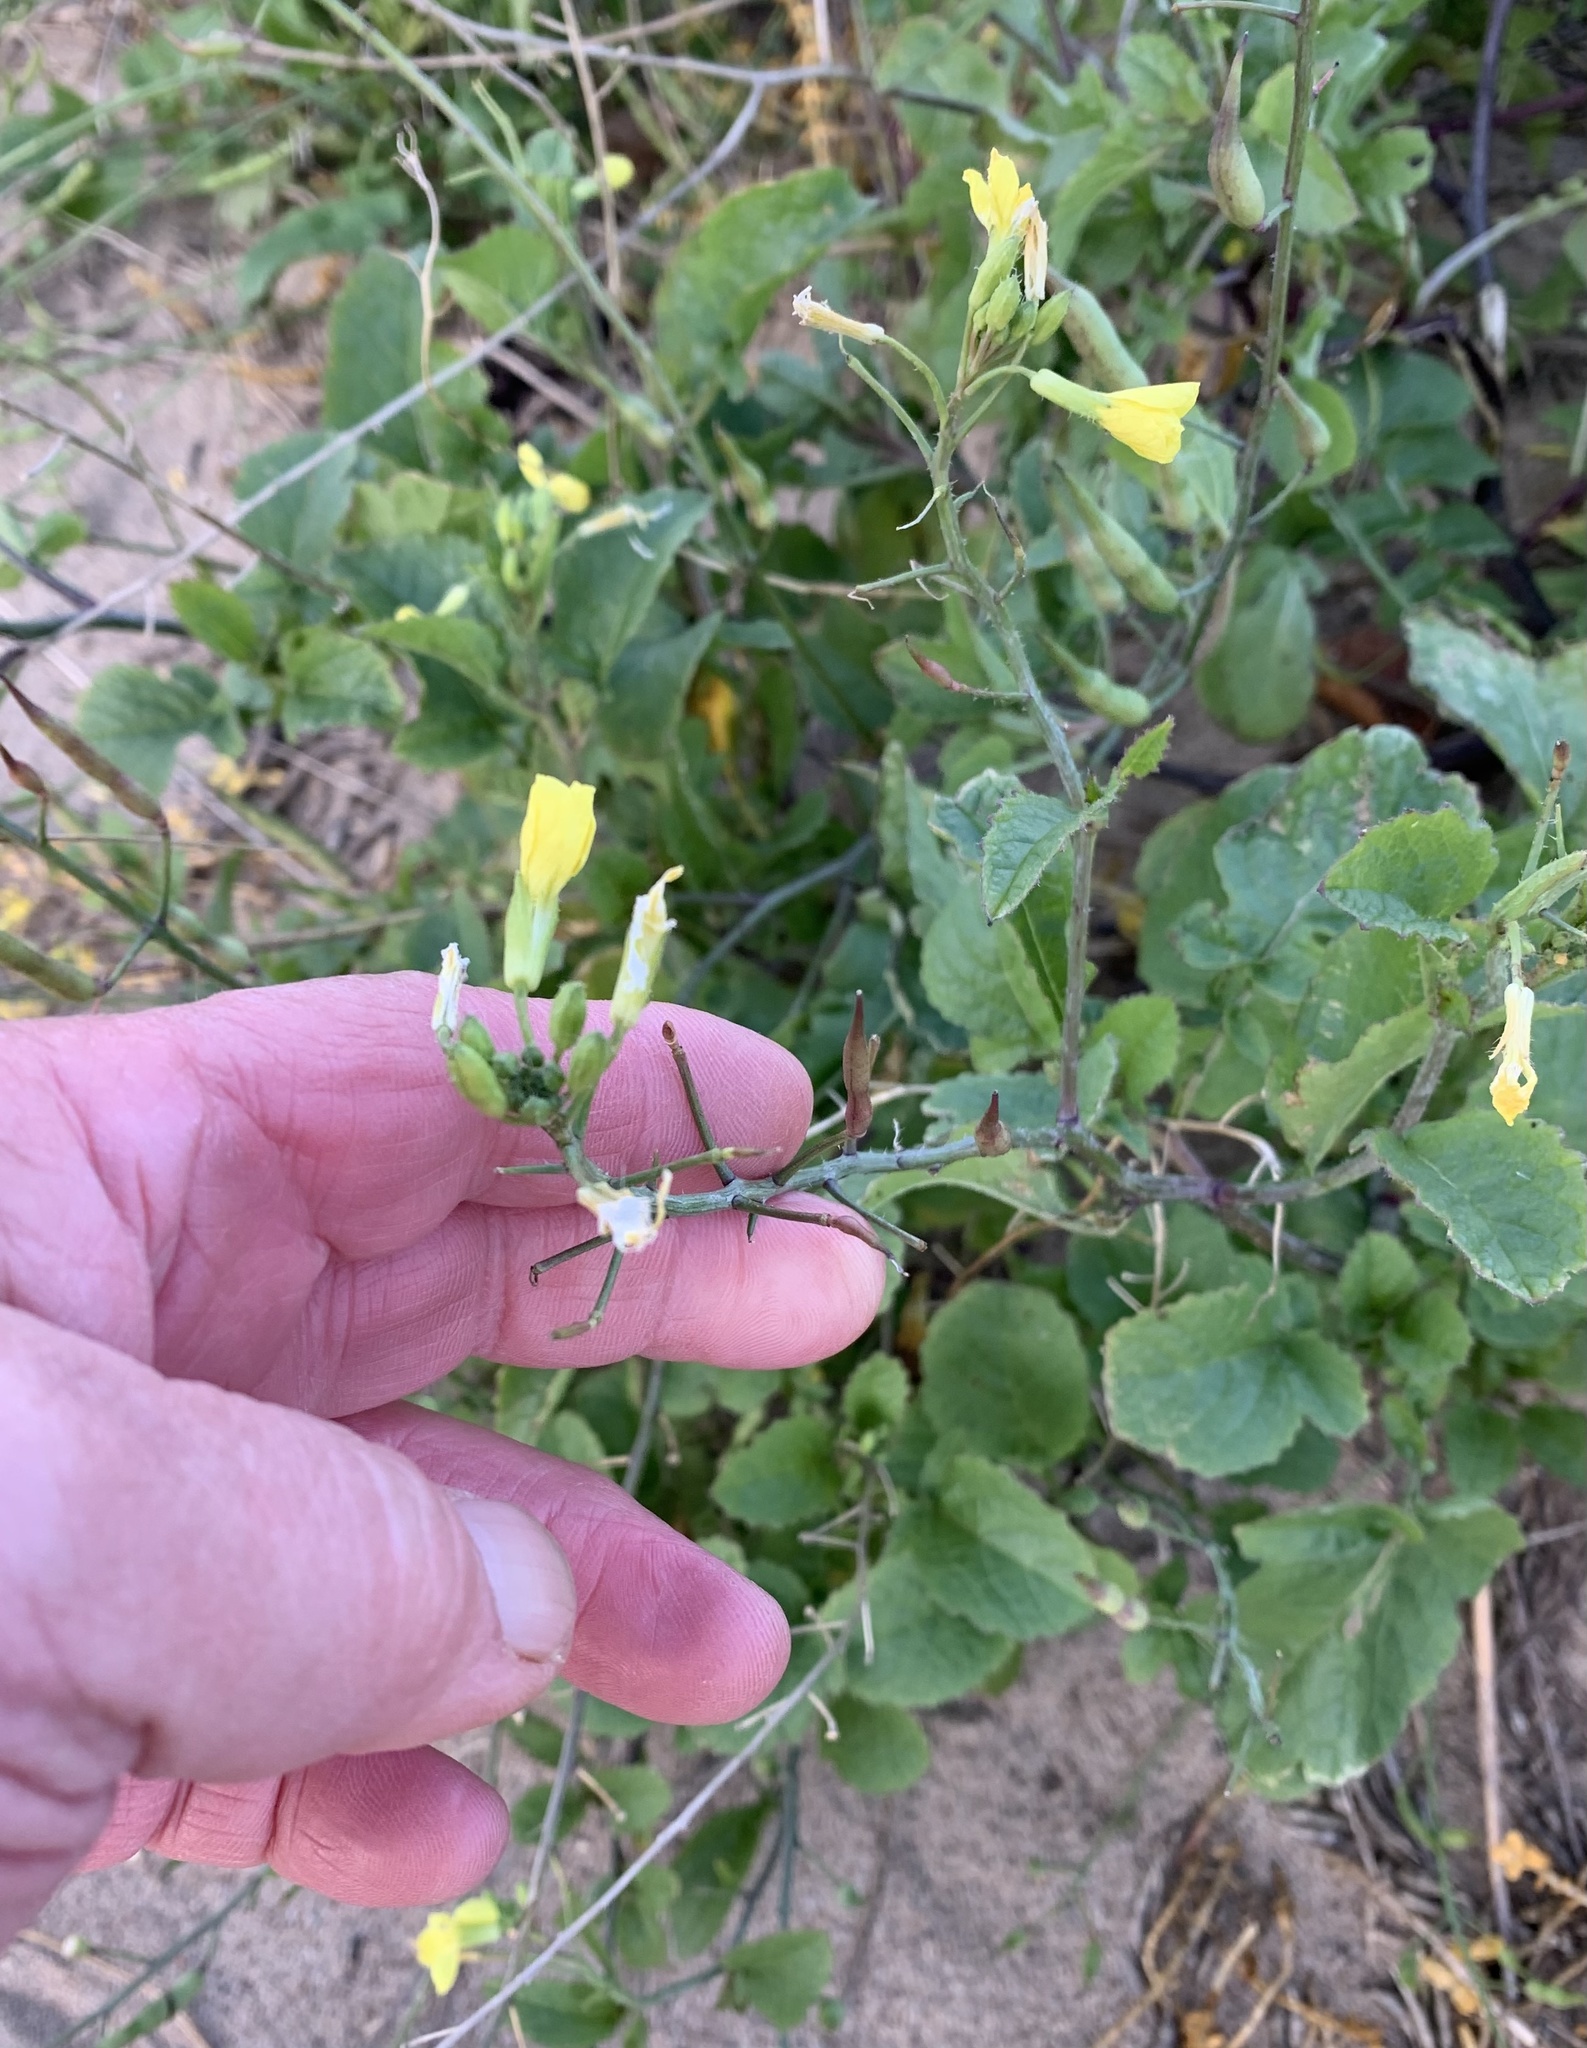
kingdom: Plantae
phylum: Tracheophyta
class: Magnoliopsida
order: Brassicales
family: Brassicaceae
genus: Raphanus
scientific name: Raphanus raphanistrum
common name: Wild radish
